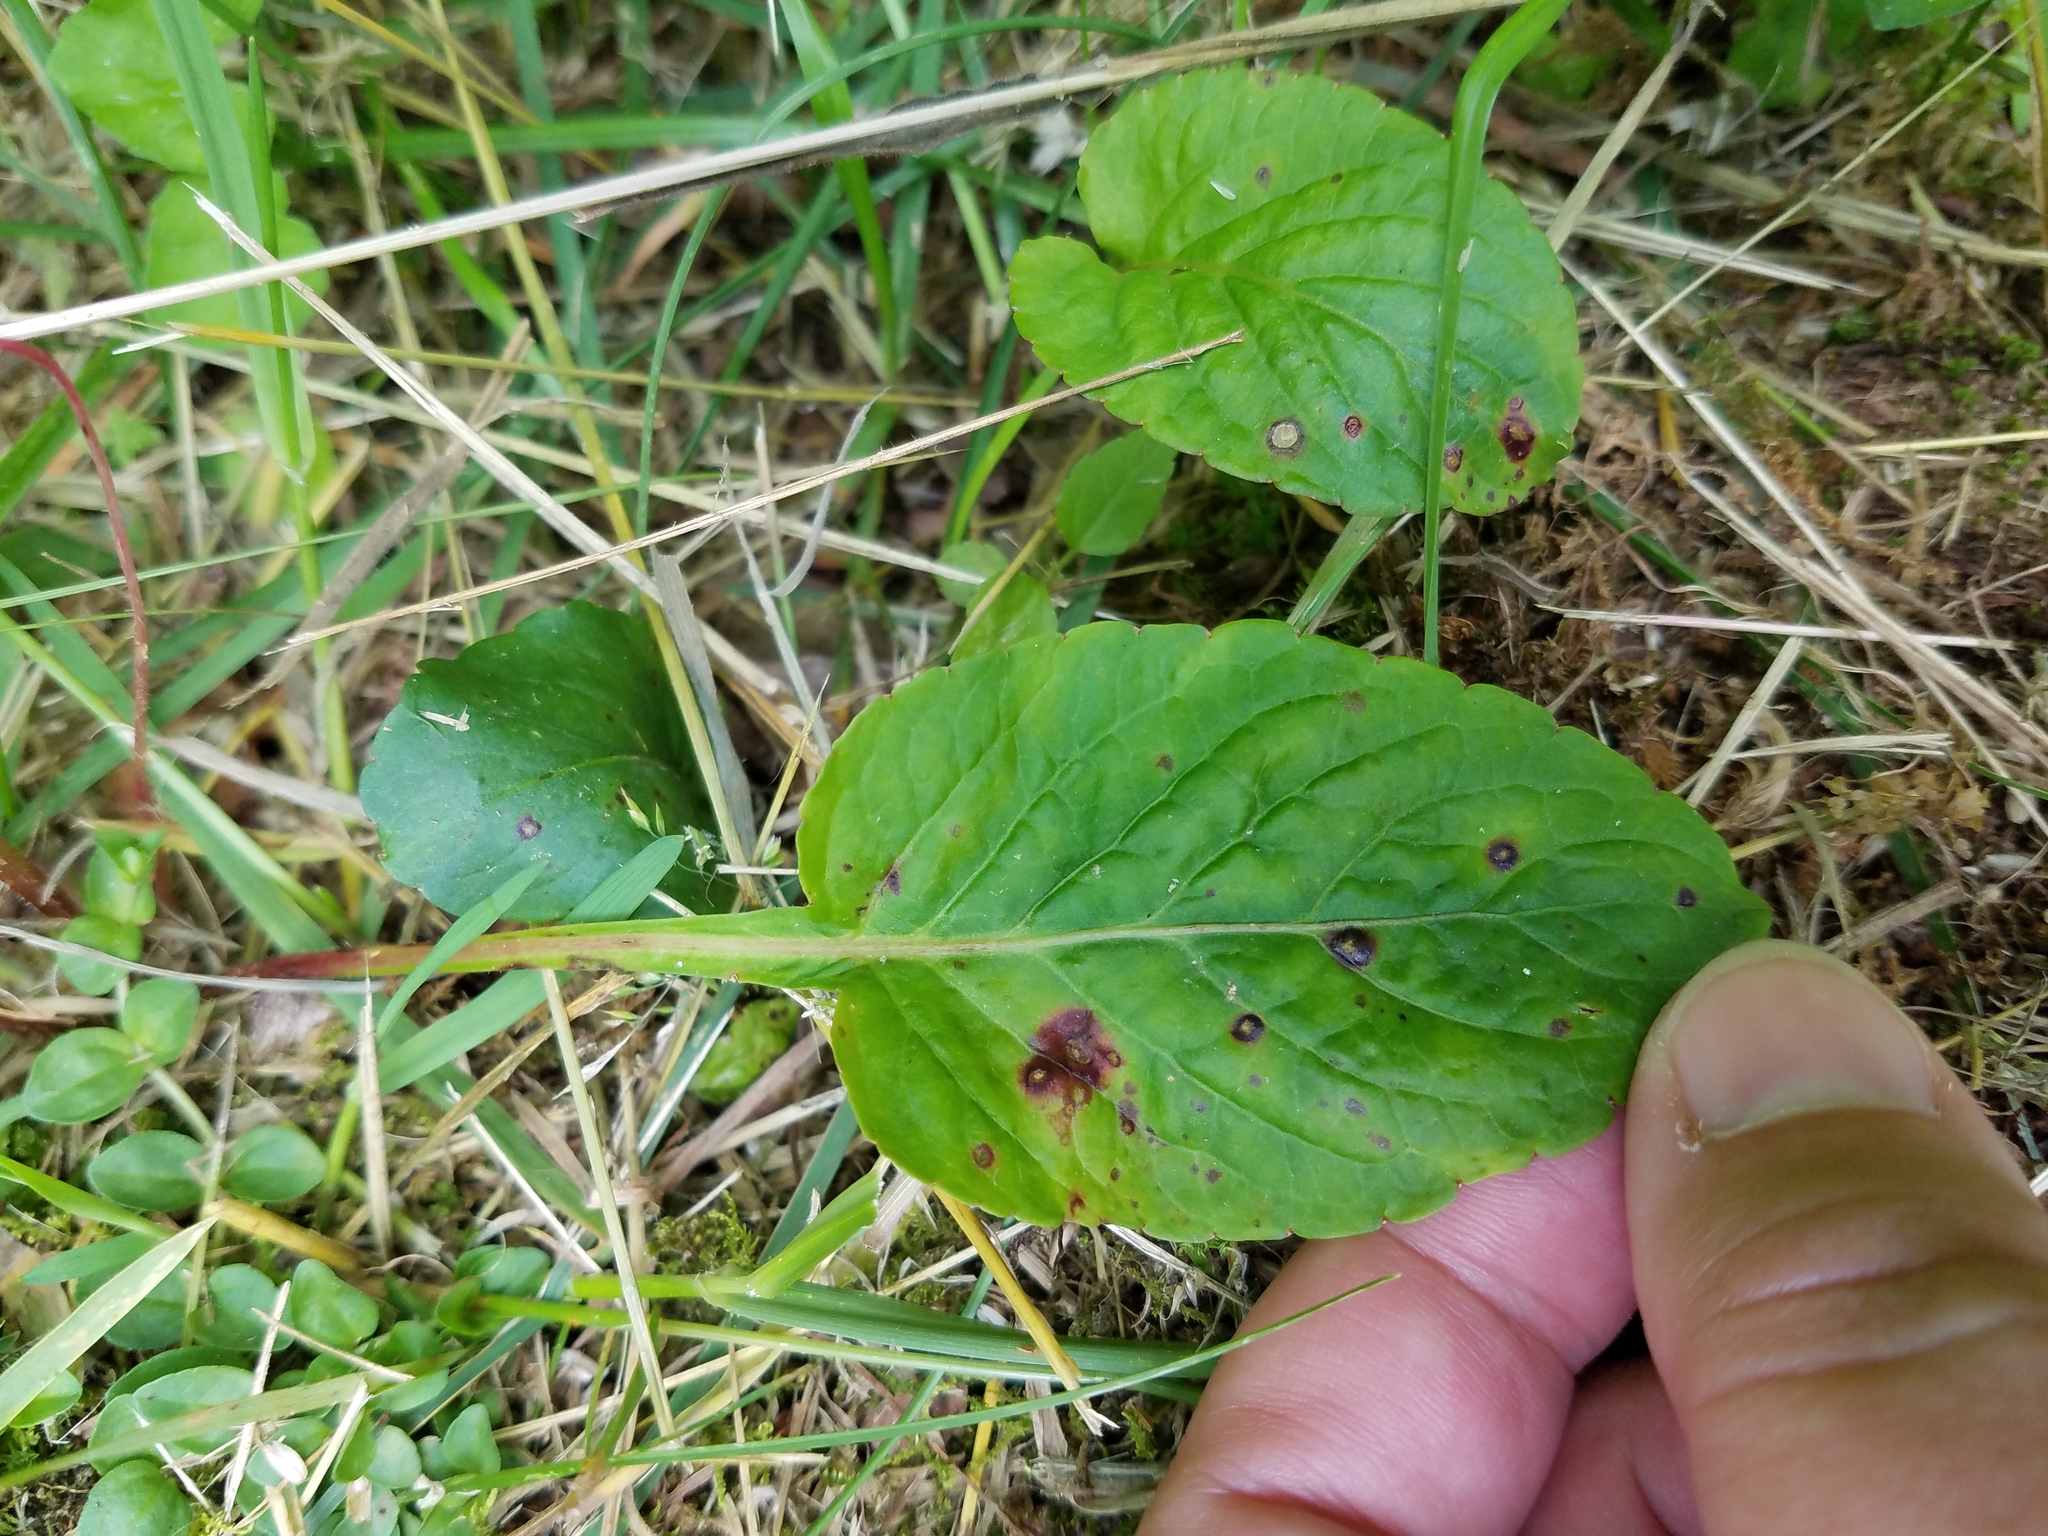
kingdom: Plantae
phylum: Tracheophyta
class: Magnoliopsida
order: Malpighiales
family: Violaceae
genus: Viola
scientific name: Viola primulifolia
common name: Primrose-leaf violet
